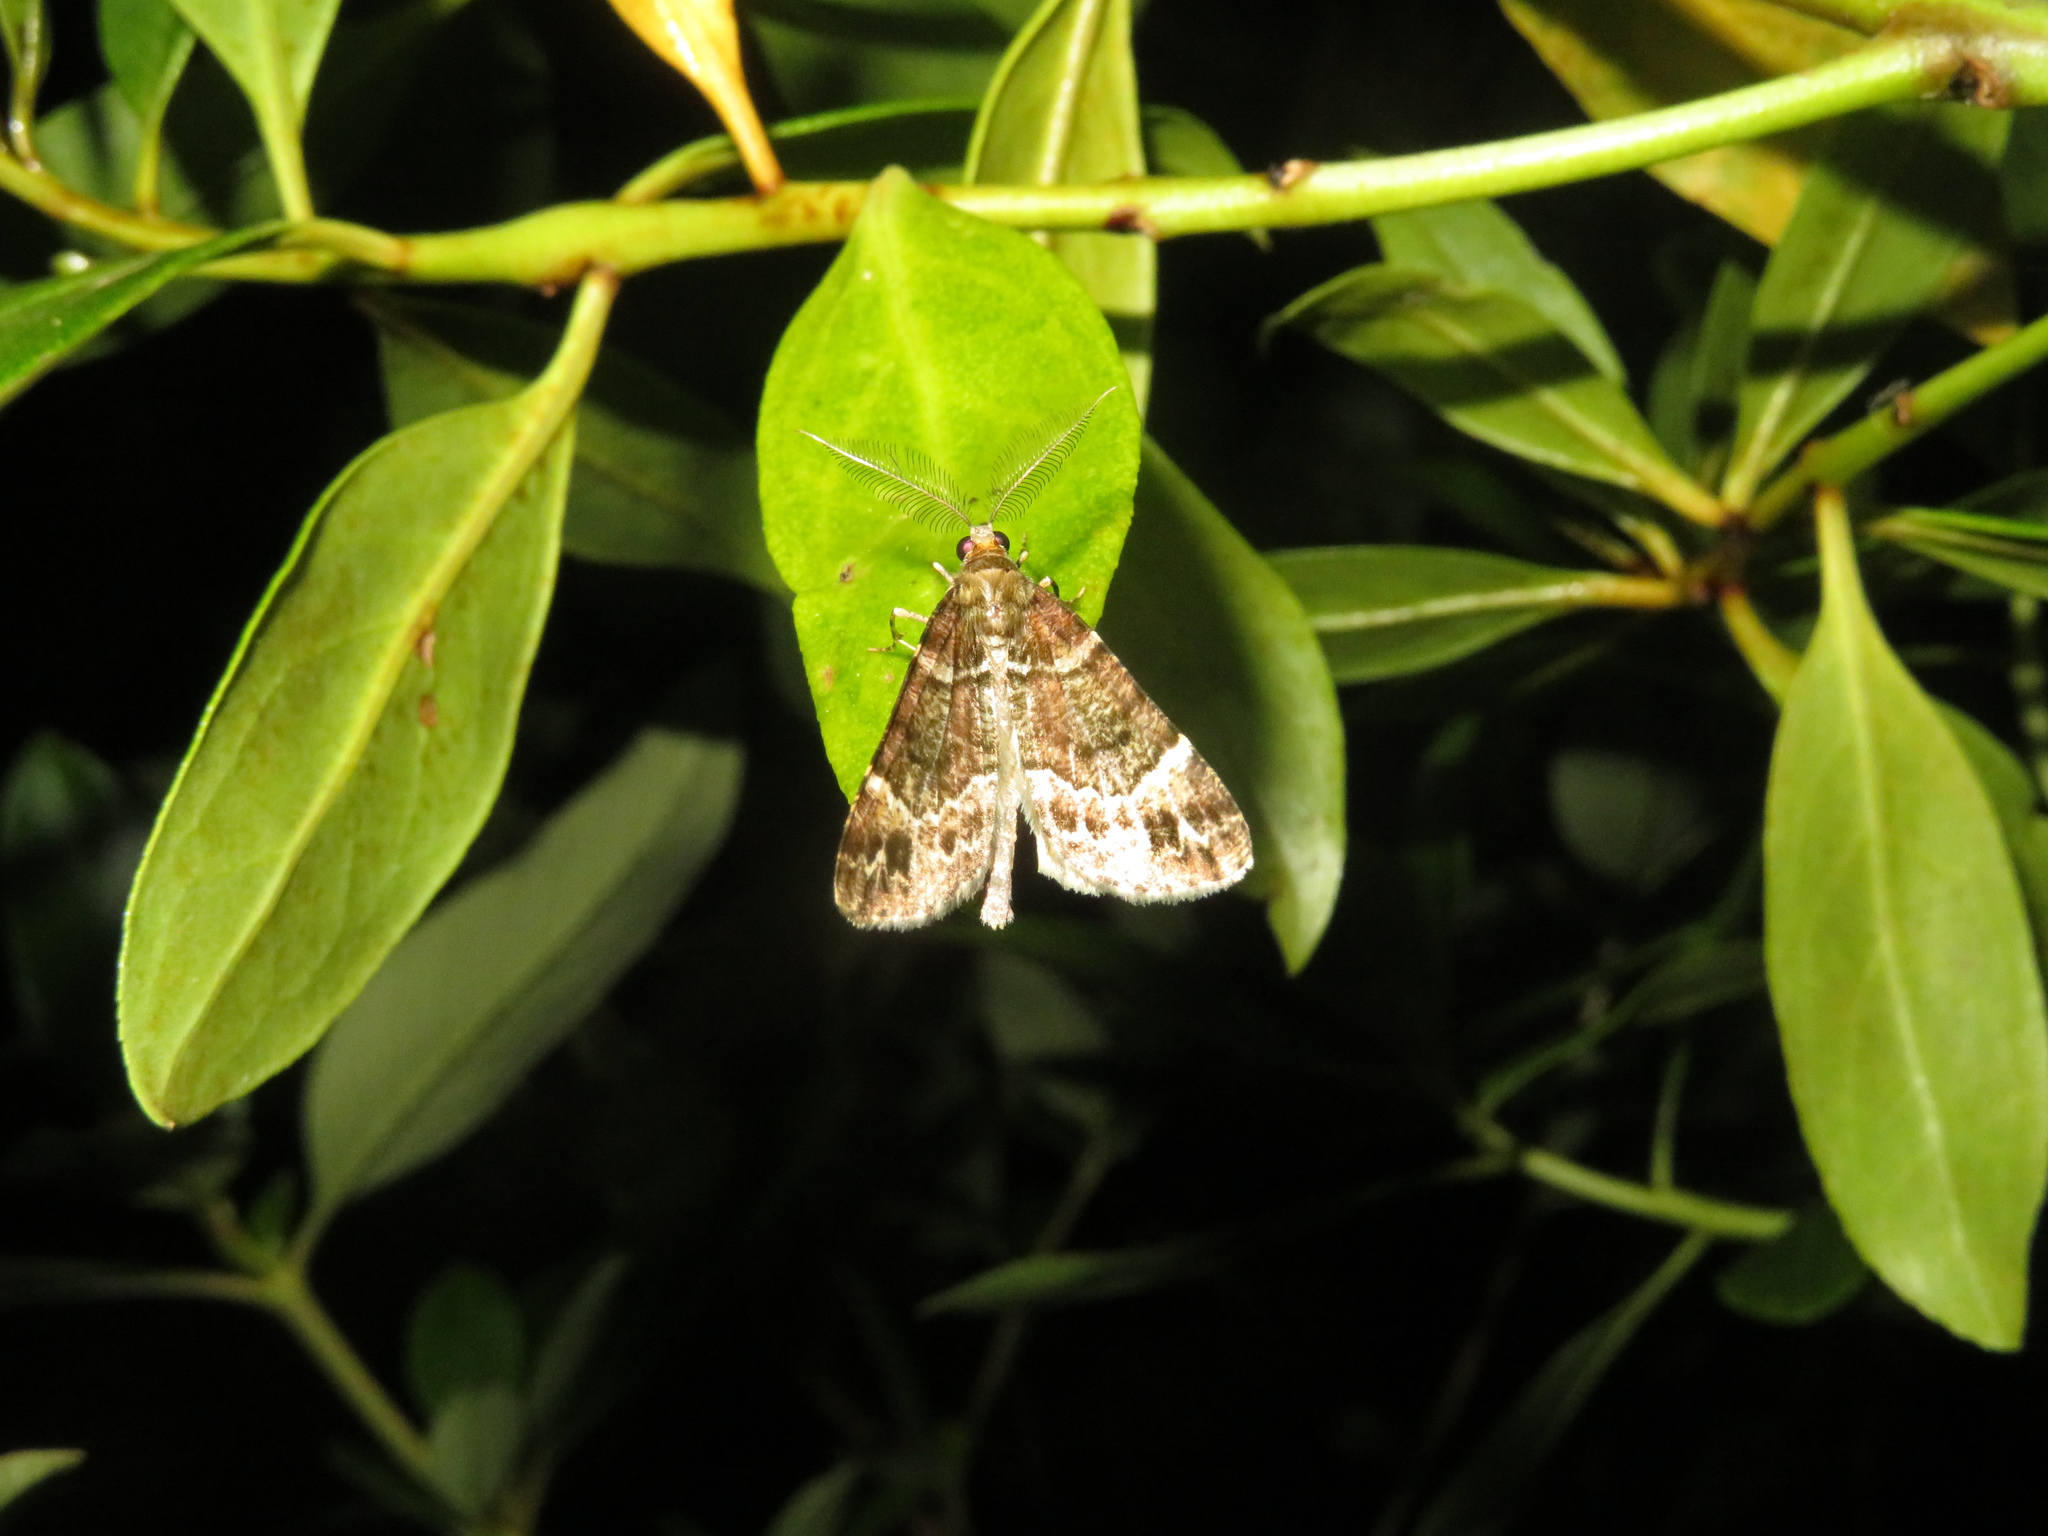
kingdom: Animalia
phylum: Arthropoda
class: Insecta
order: Lepidoptera
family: Geometridae
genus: Pseudocoremia
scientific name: Pseudocoremia productata
